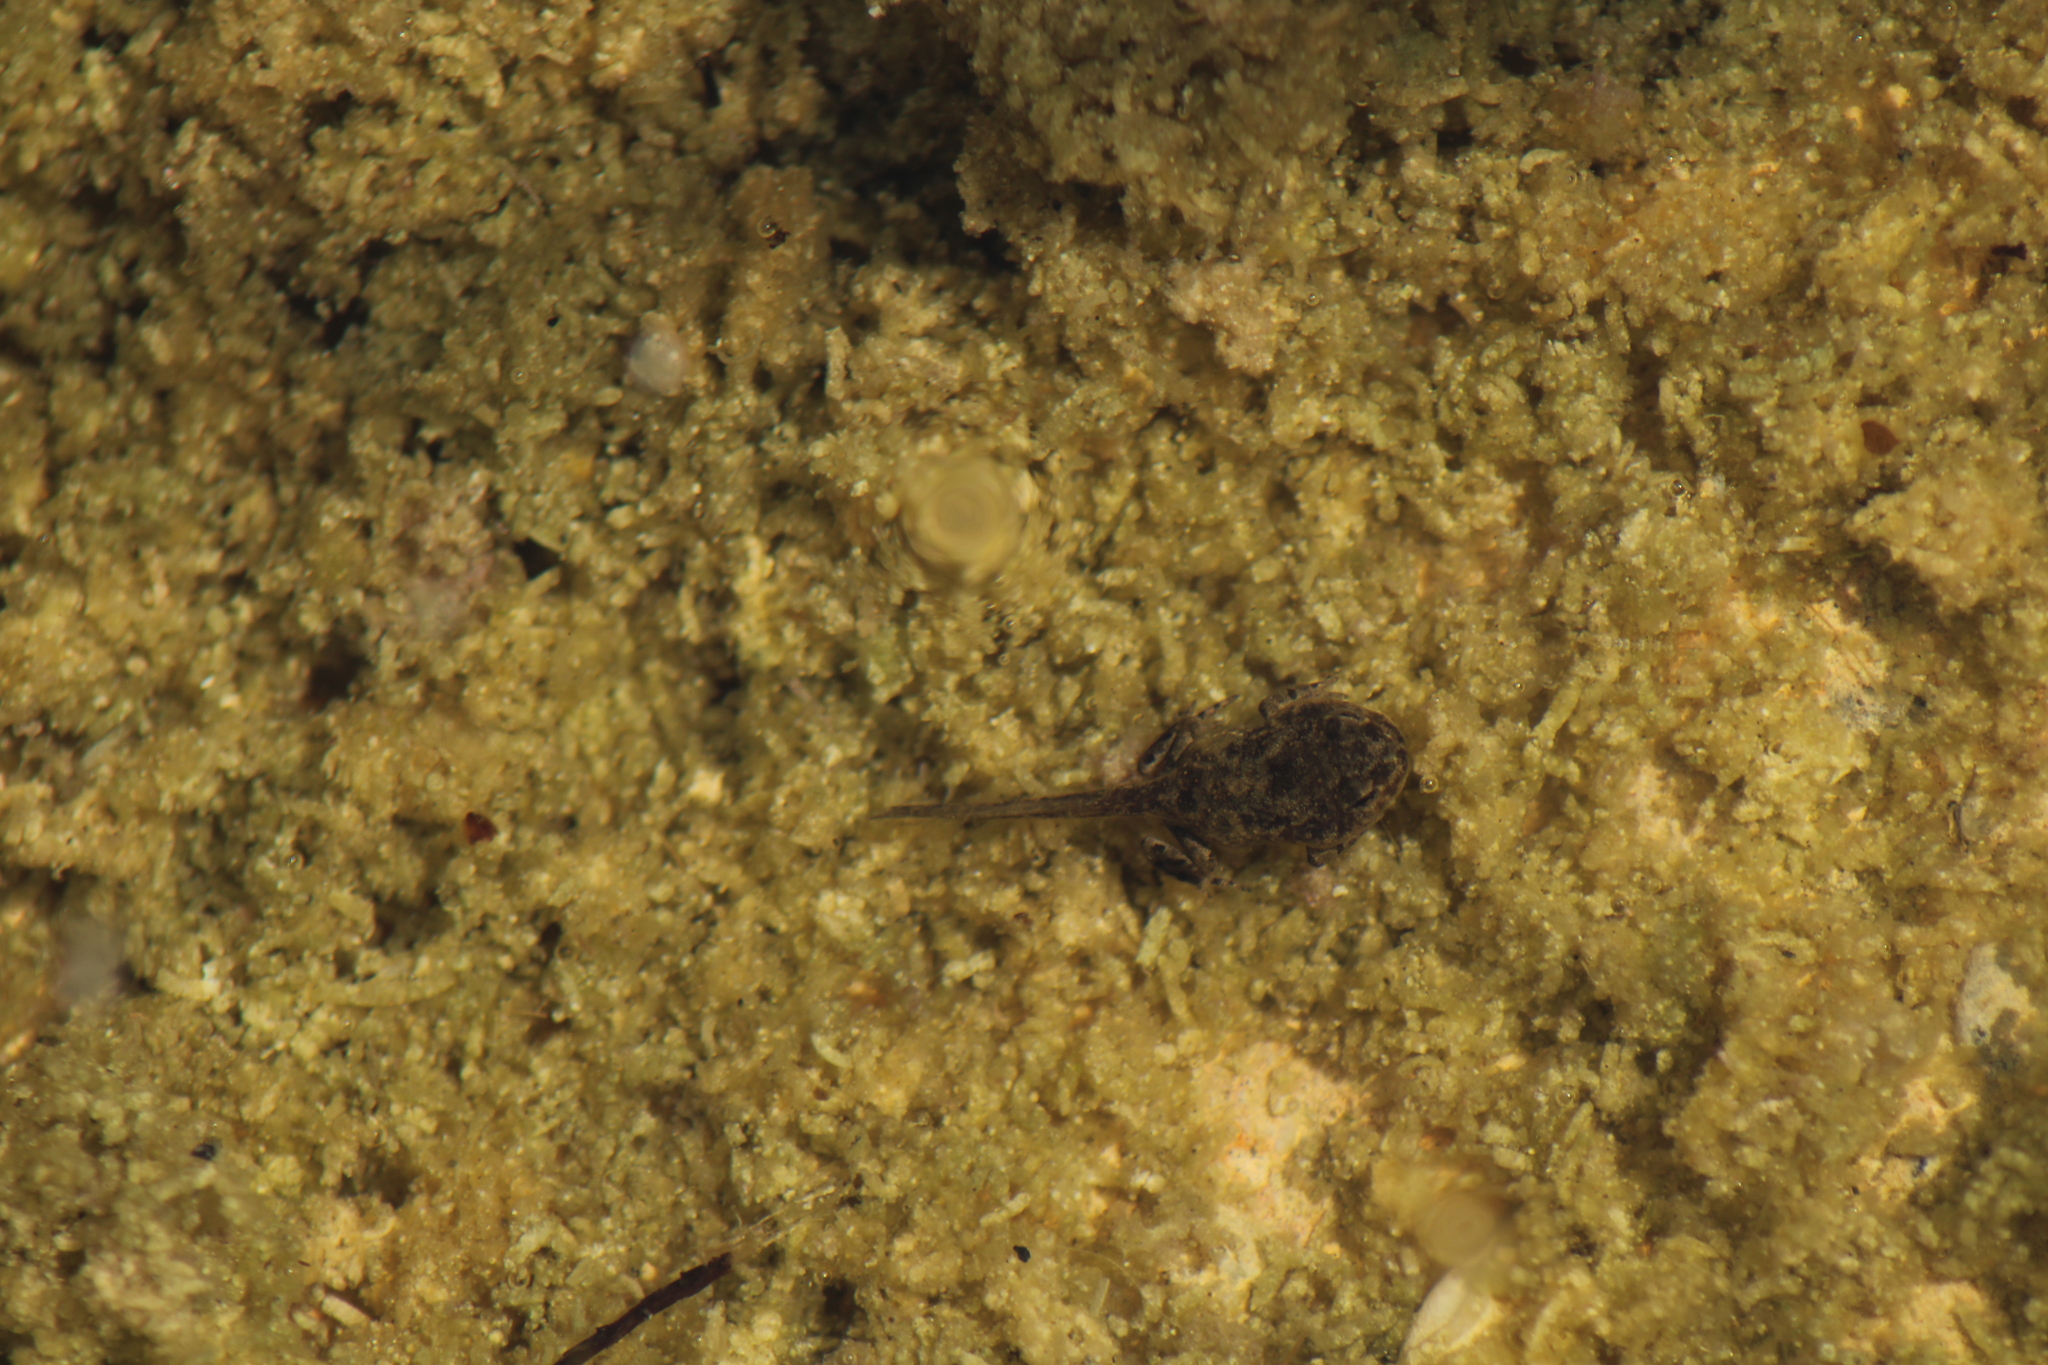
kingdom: Animalia
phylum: Chordata
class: Amphibia
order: Anura
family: Bufonidae
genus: Bufotes
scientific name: Bufotes viridis
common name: European green toad
